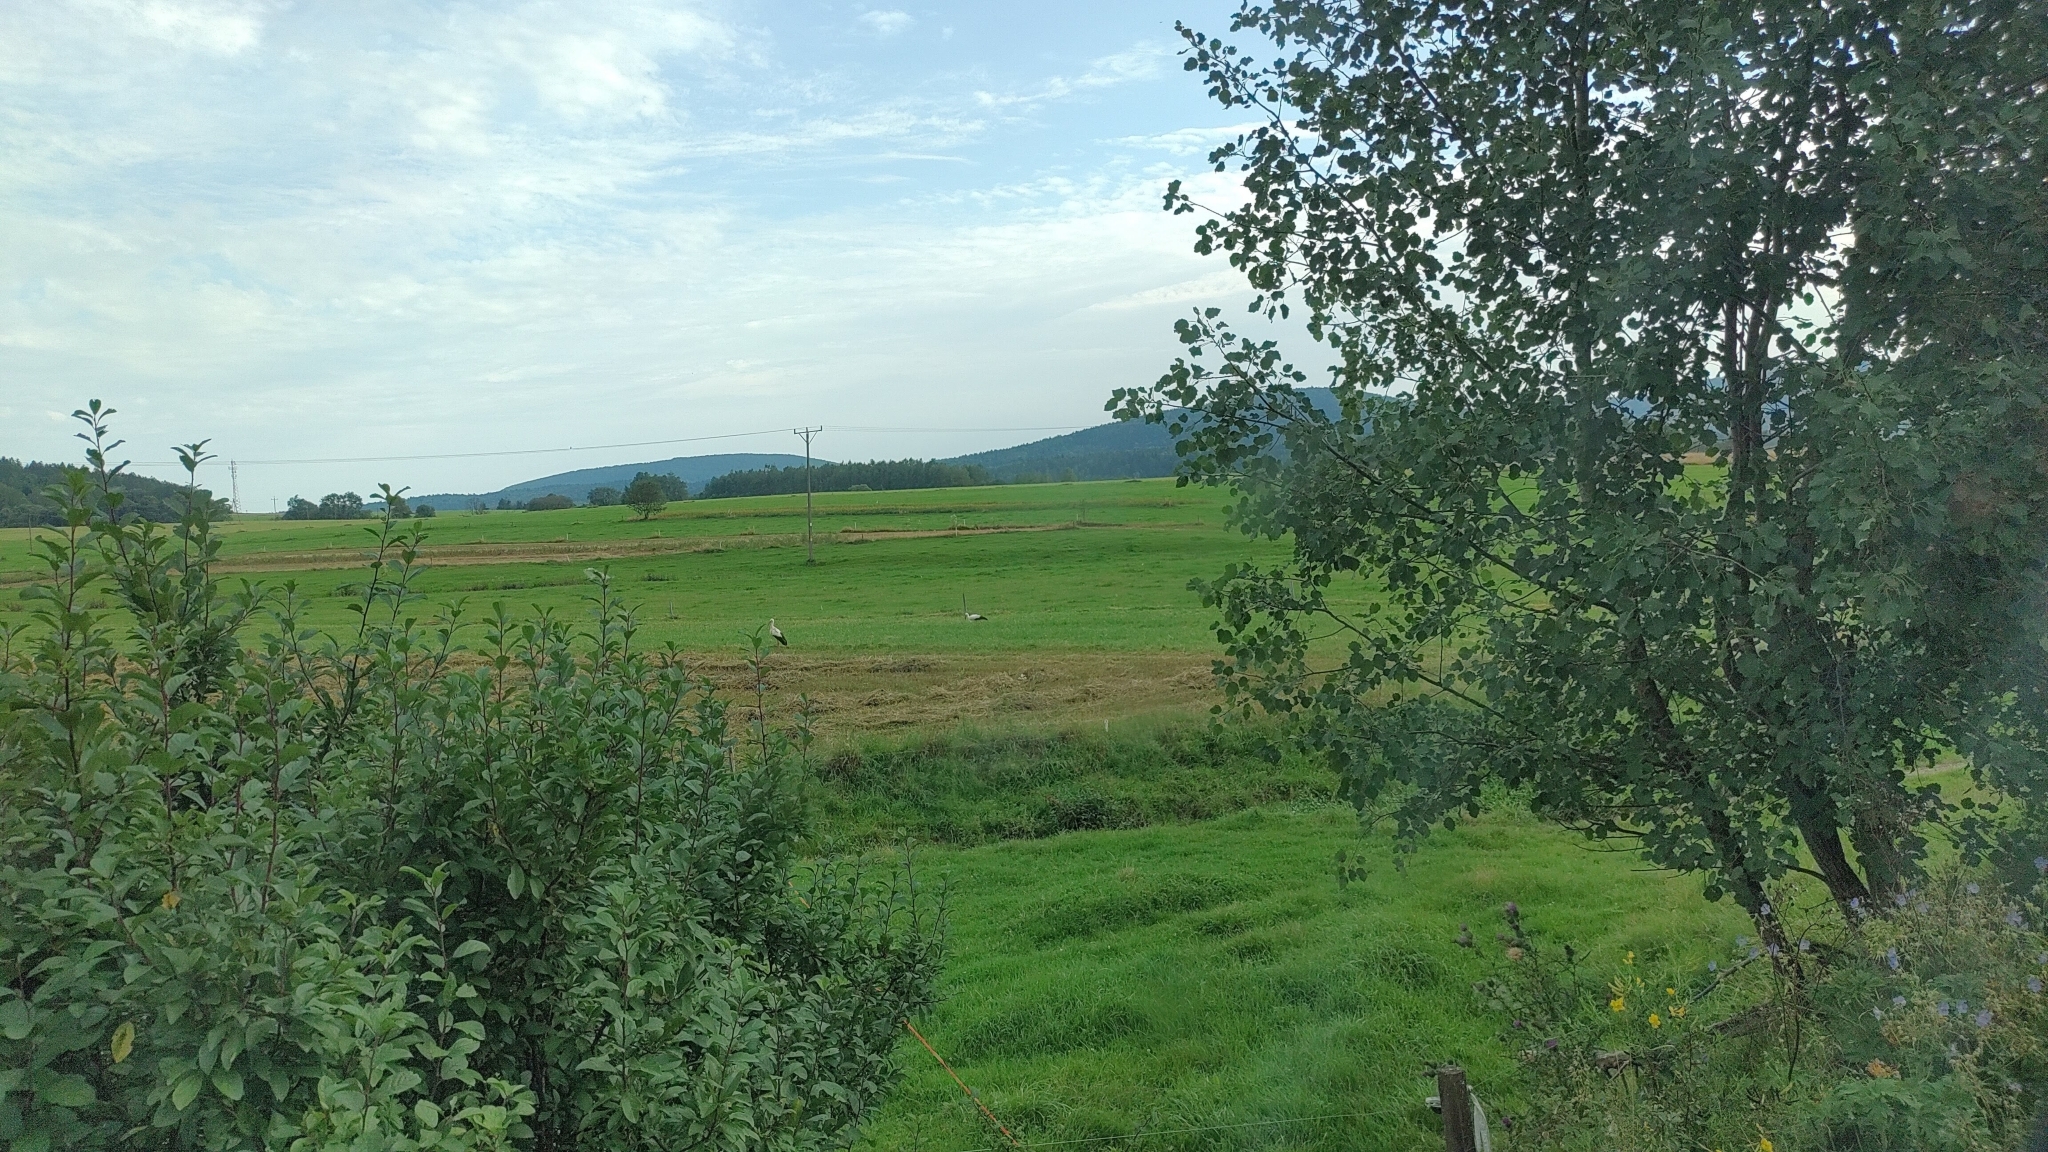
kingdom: Animalia
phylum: Chordata
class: Aves
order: Ciconiiformes
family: Ciconiidae
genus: Ciconia
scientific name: Ciconia ciconia
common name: White stork
